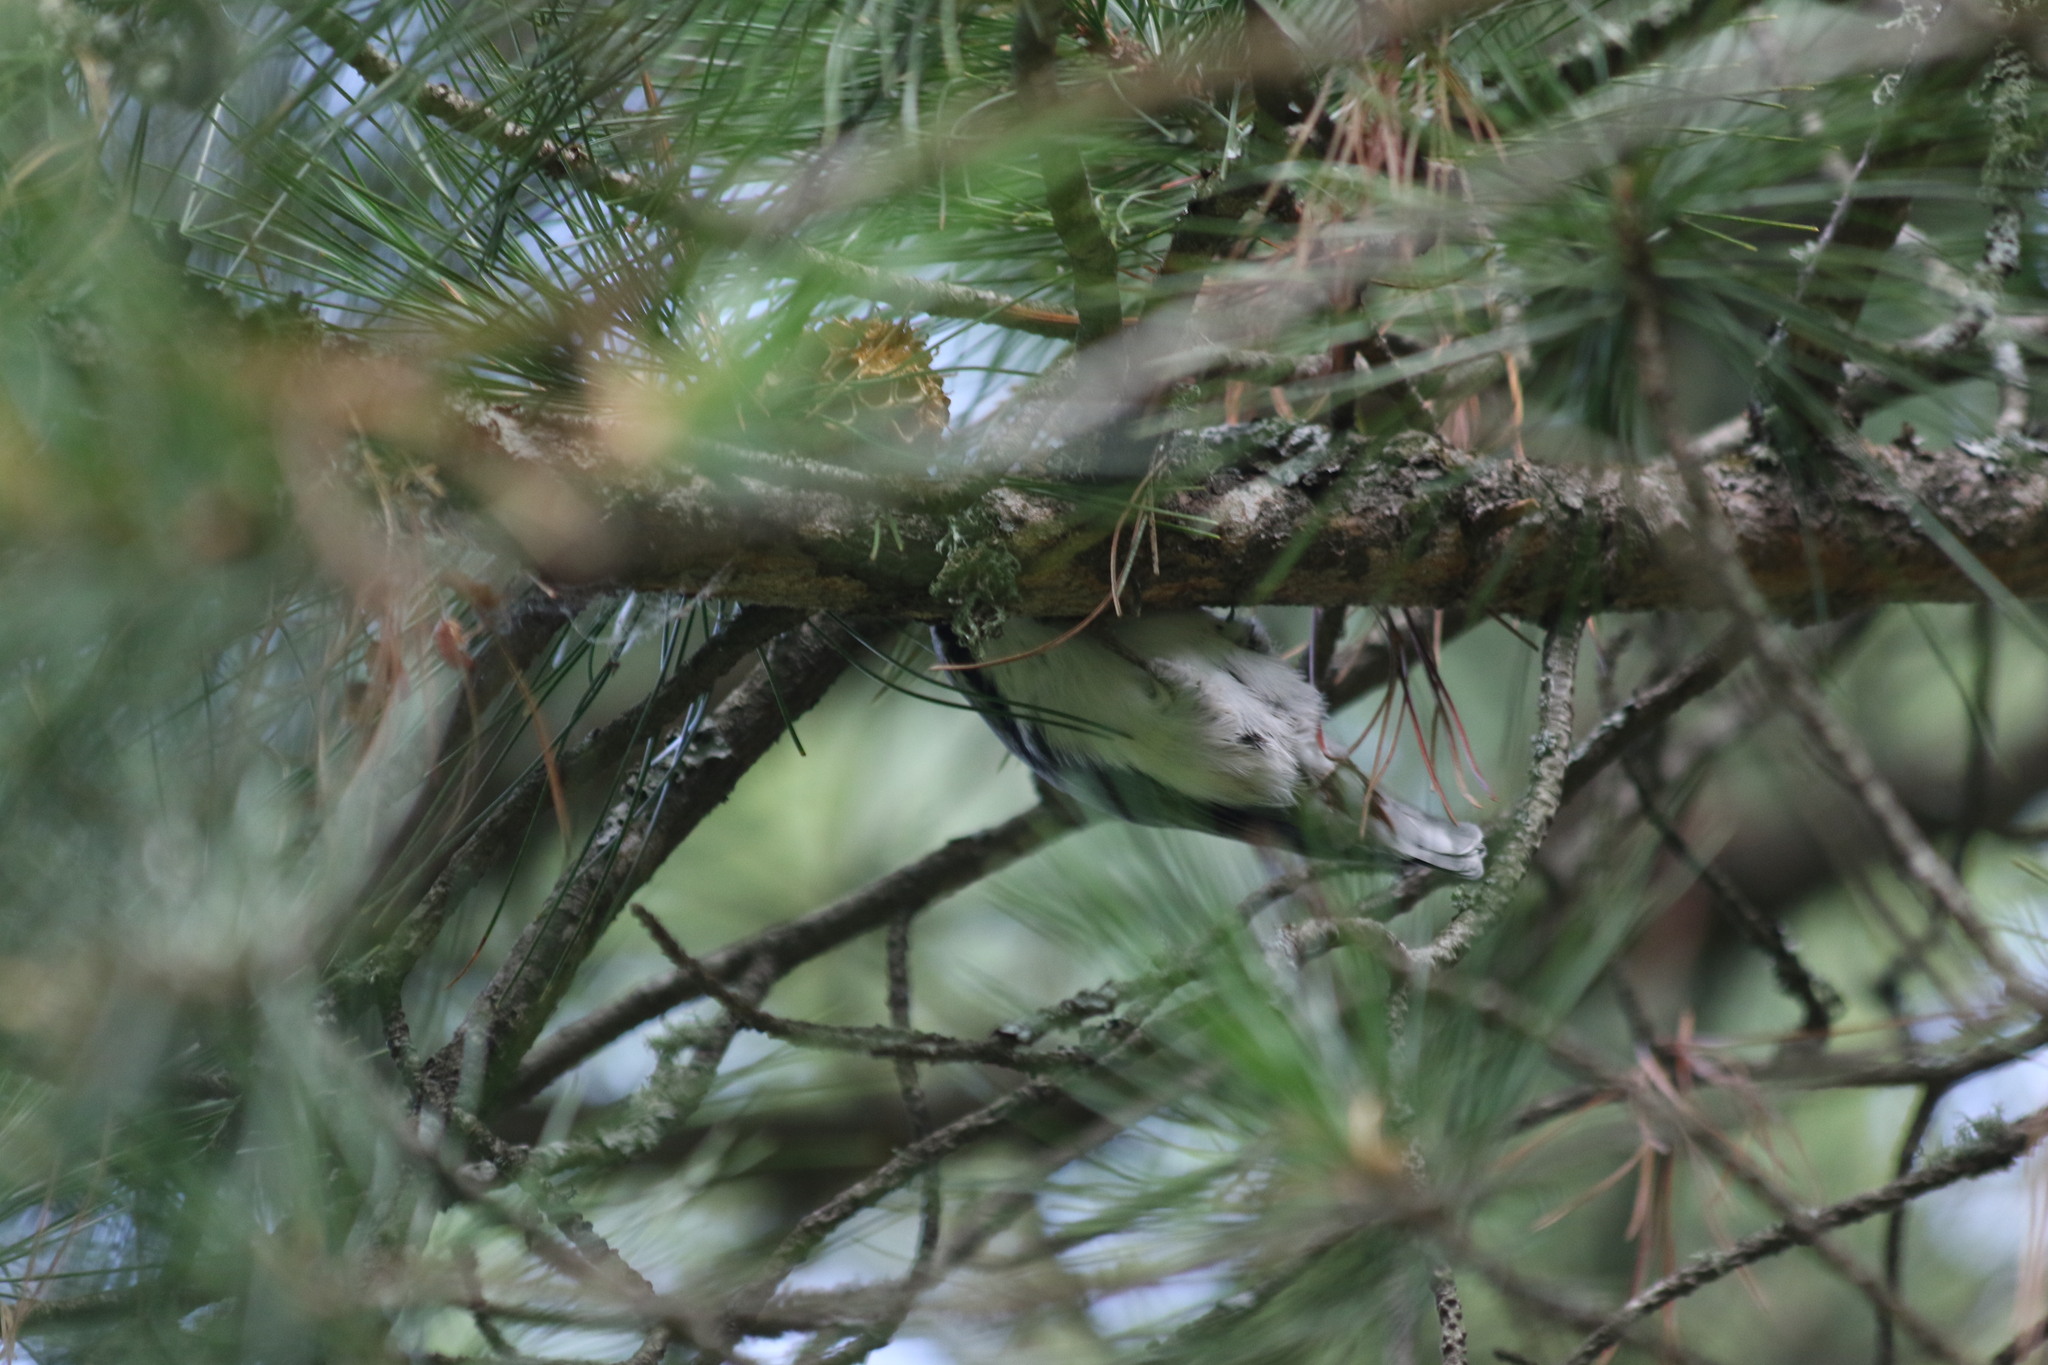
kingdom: Animalia
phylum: Chordata
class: Aves
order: Passeriformes
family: Sittidae
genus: Sitta
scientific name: Sitta europaea
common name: Eurasian nuthatch
